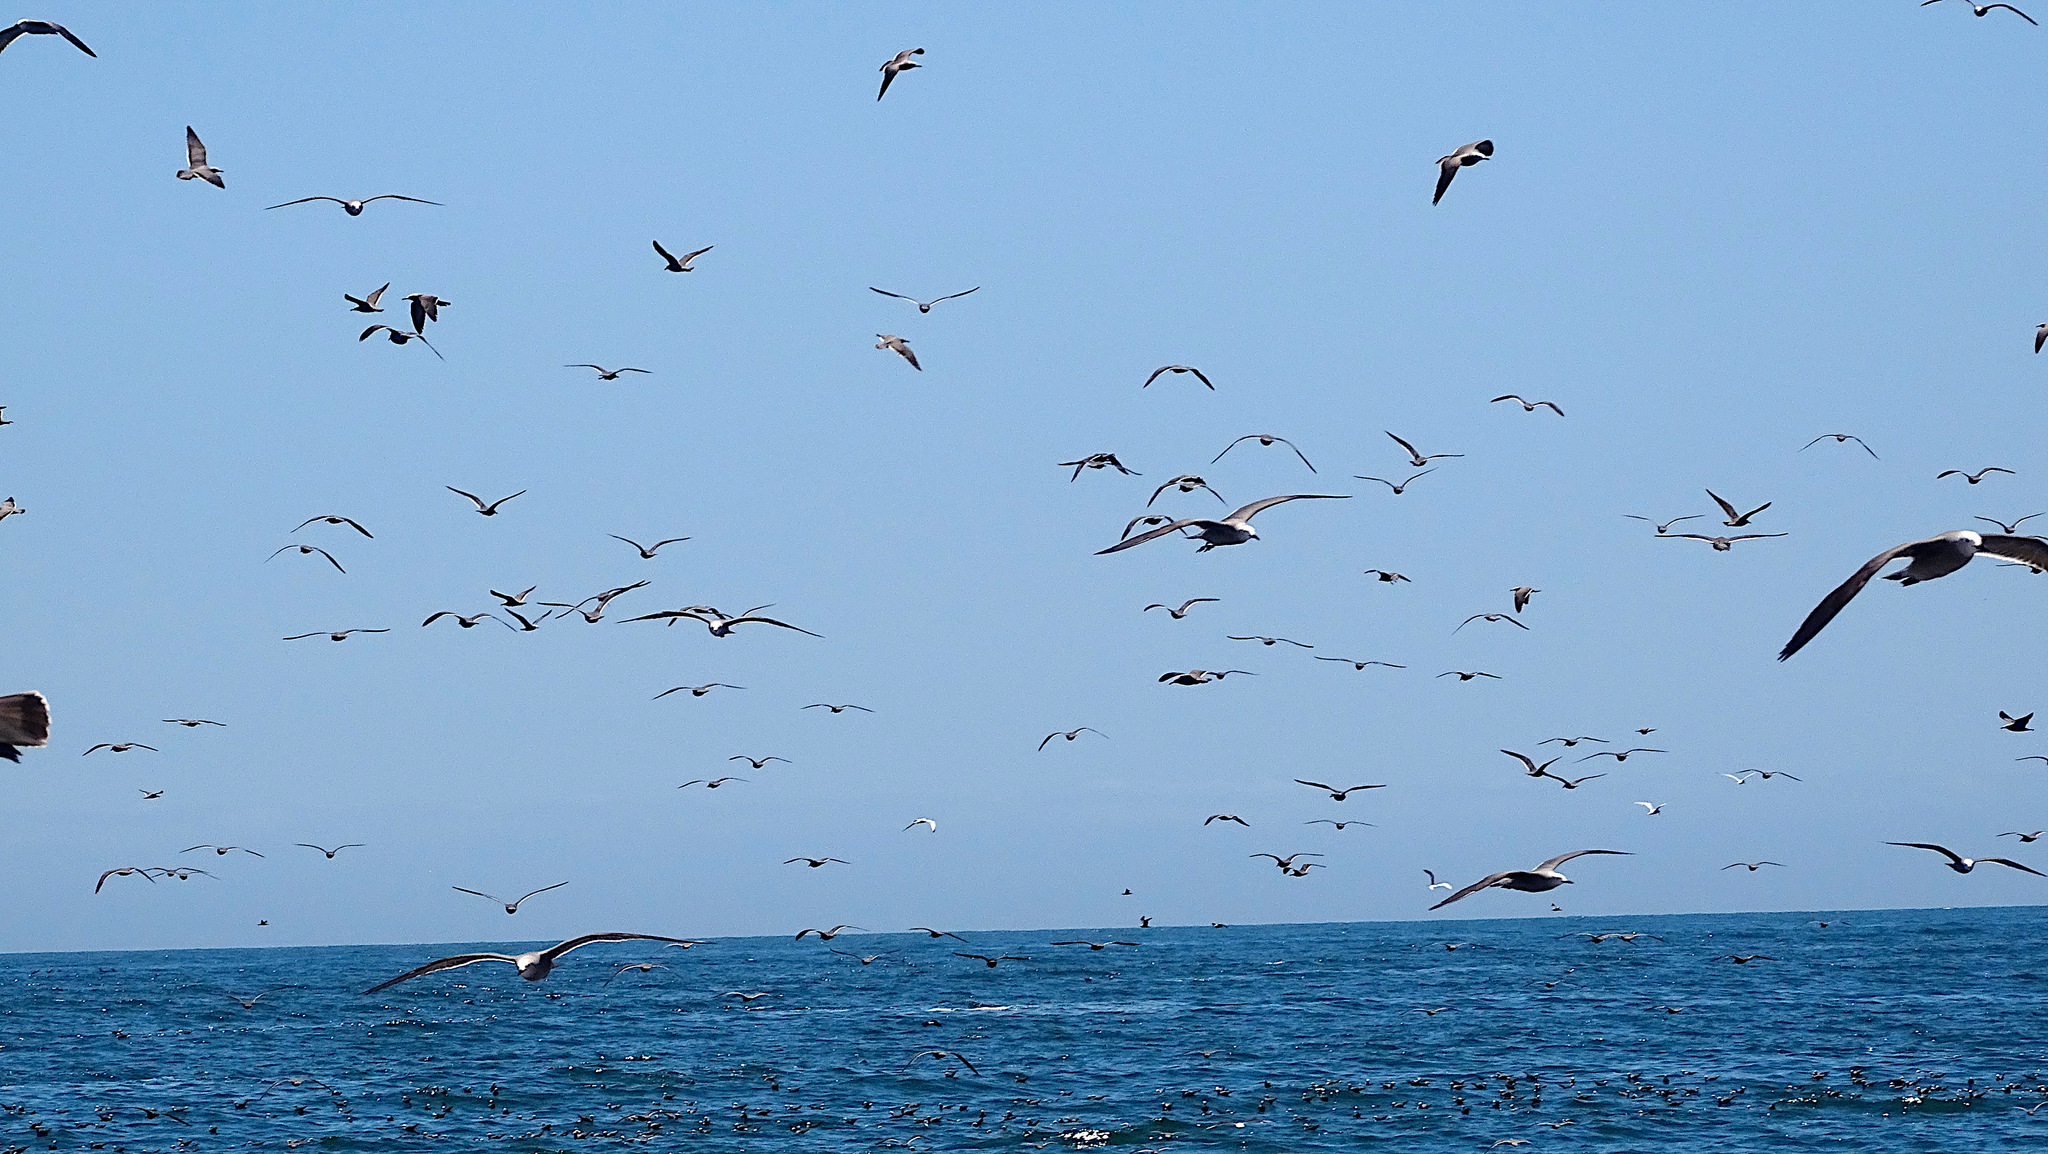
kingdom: Animalia
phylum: Chordata
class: Aves
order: Charadriiformes
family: Laridae
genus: Leucophaeus
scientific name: Leucophaeus modestus
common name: Gray gull
